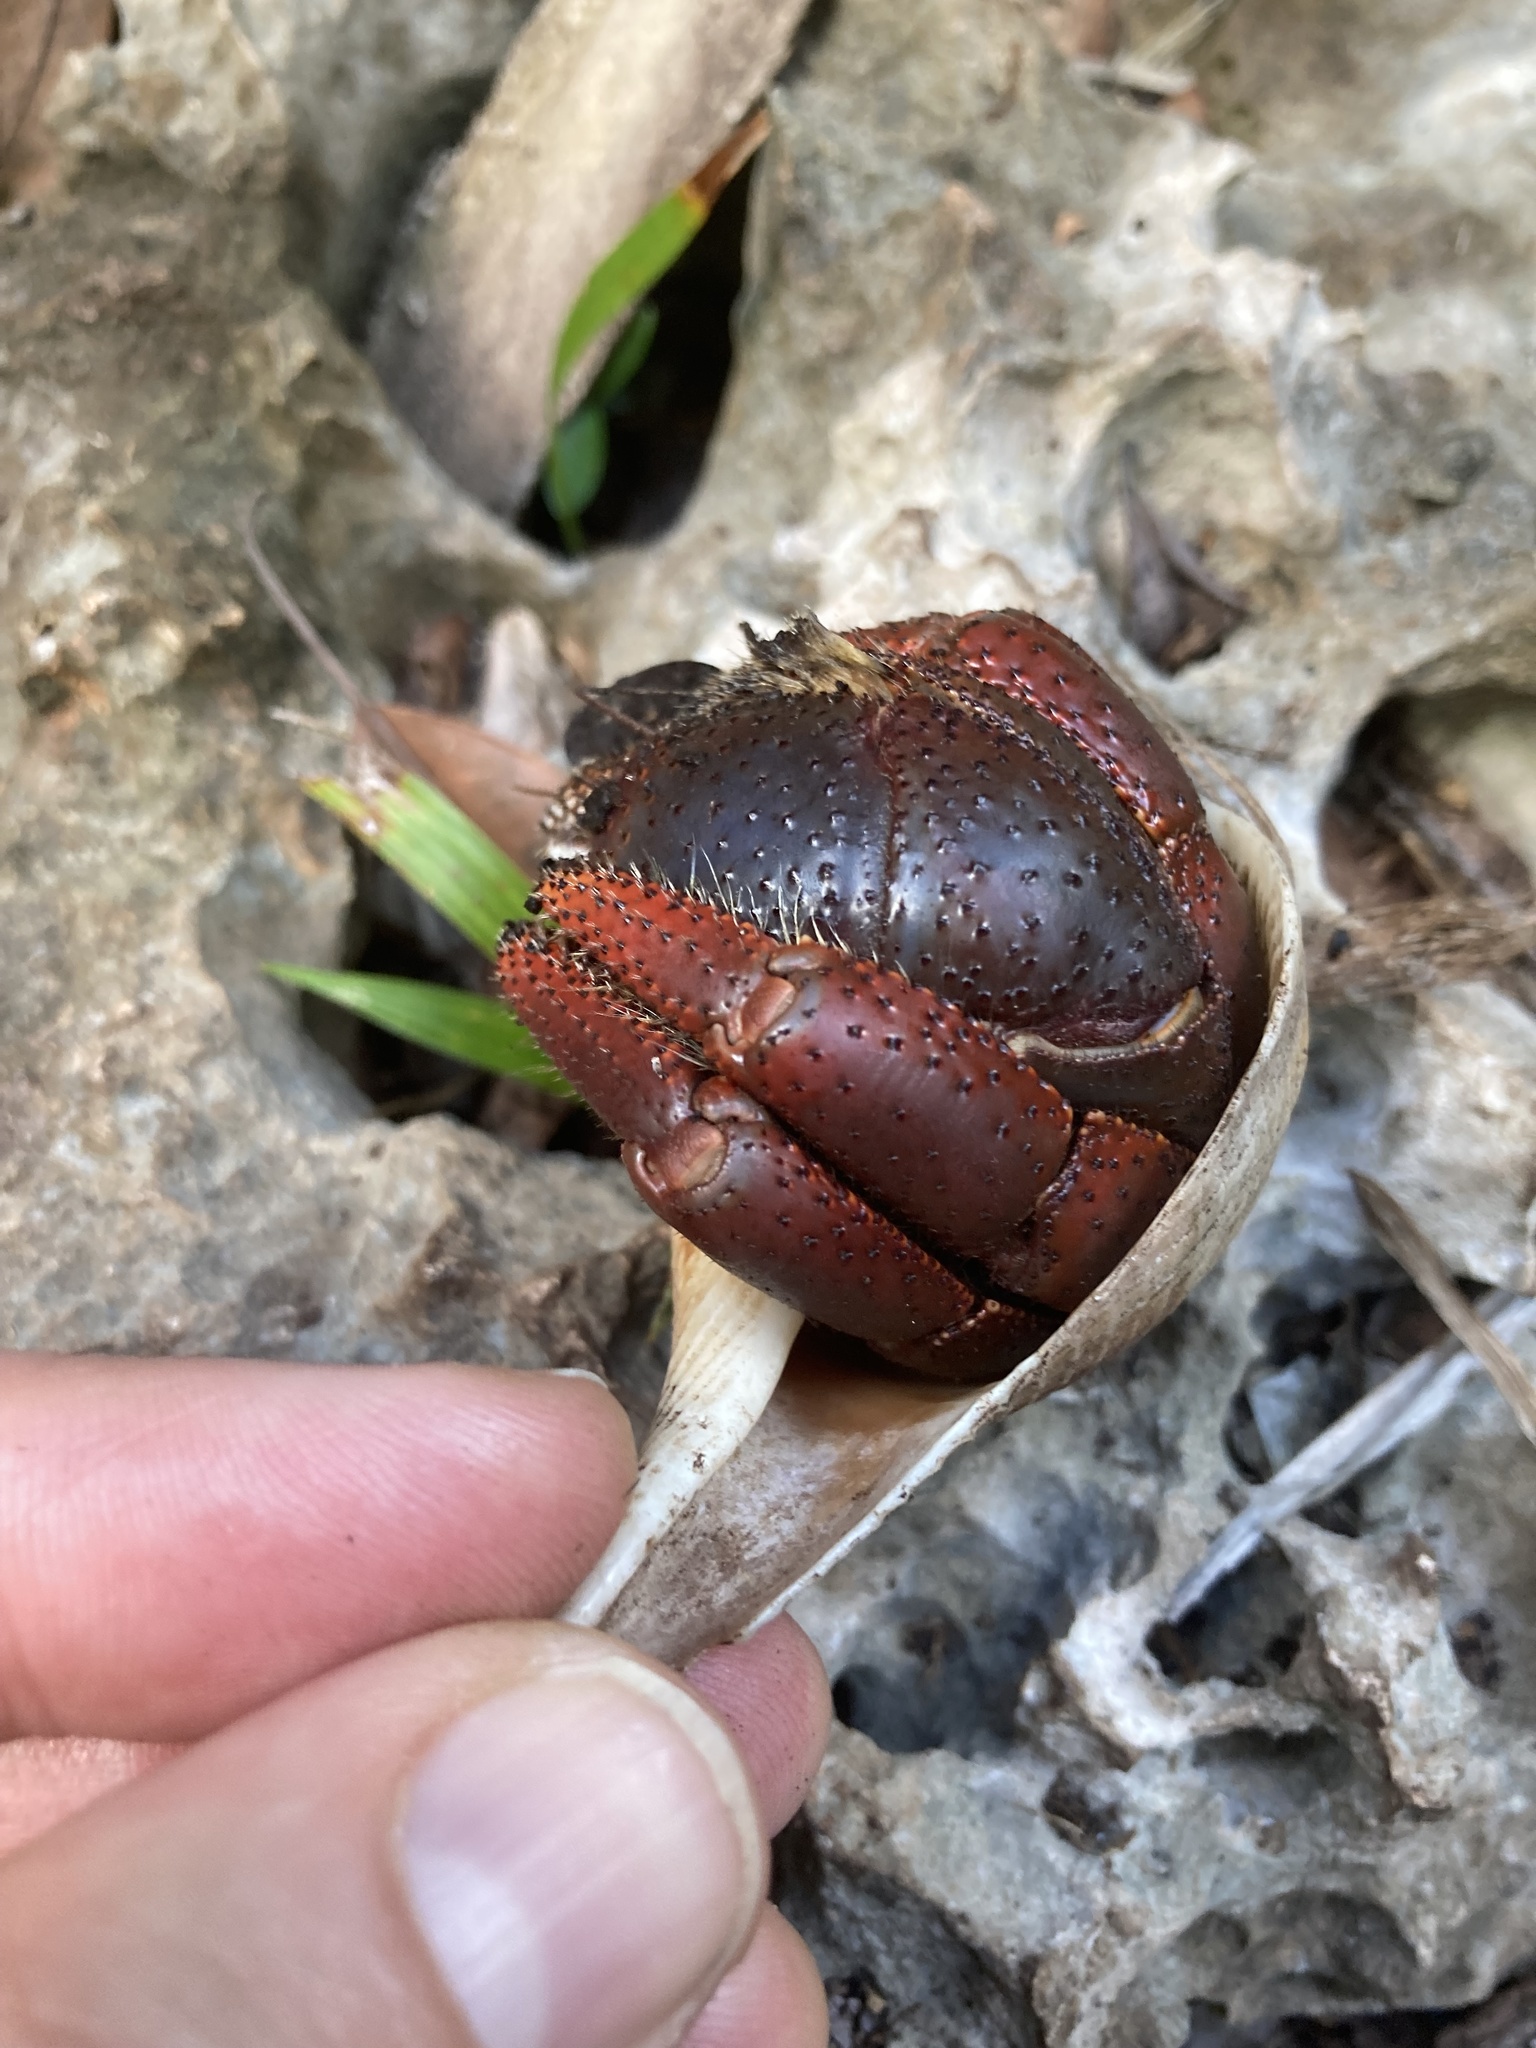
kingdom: Animalia
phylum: Arthropoda
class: Malacostraca
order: Decapoda
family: Coenobitidae
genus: Coenobita
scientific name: Coenobita clypeatus
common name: Caribbean hermit crab
